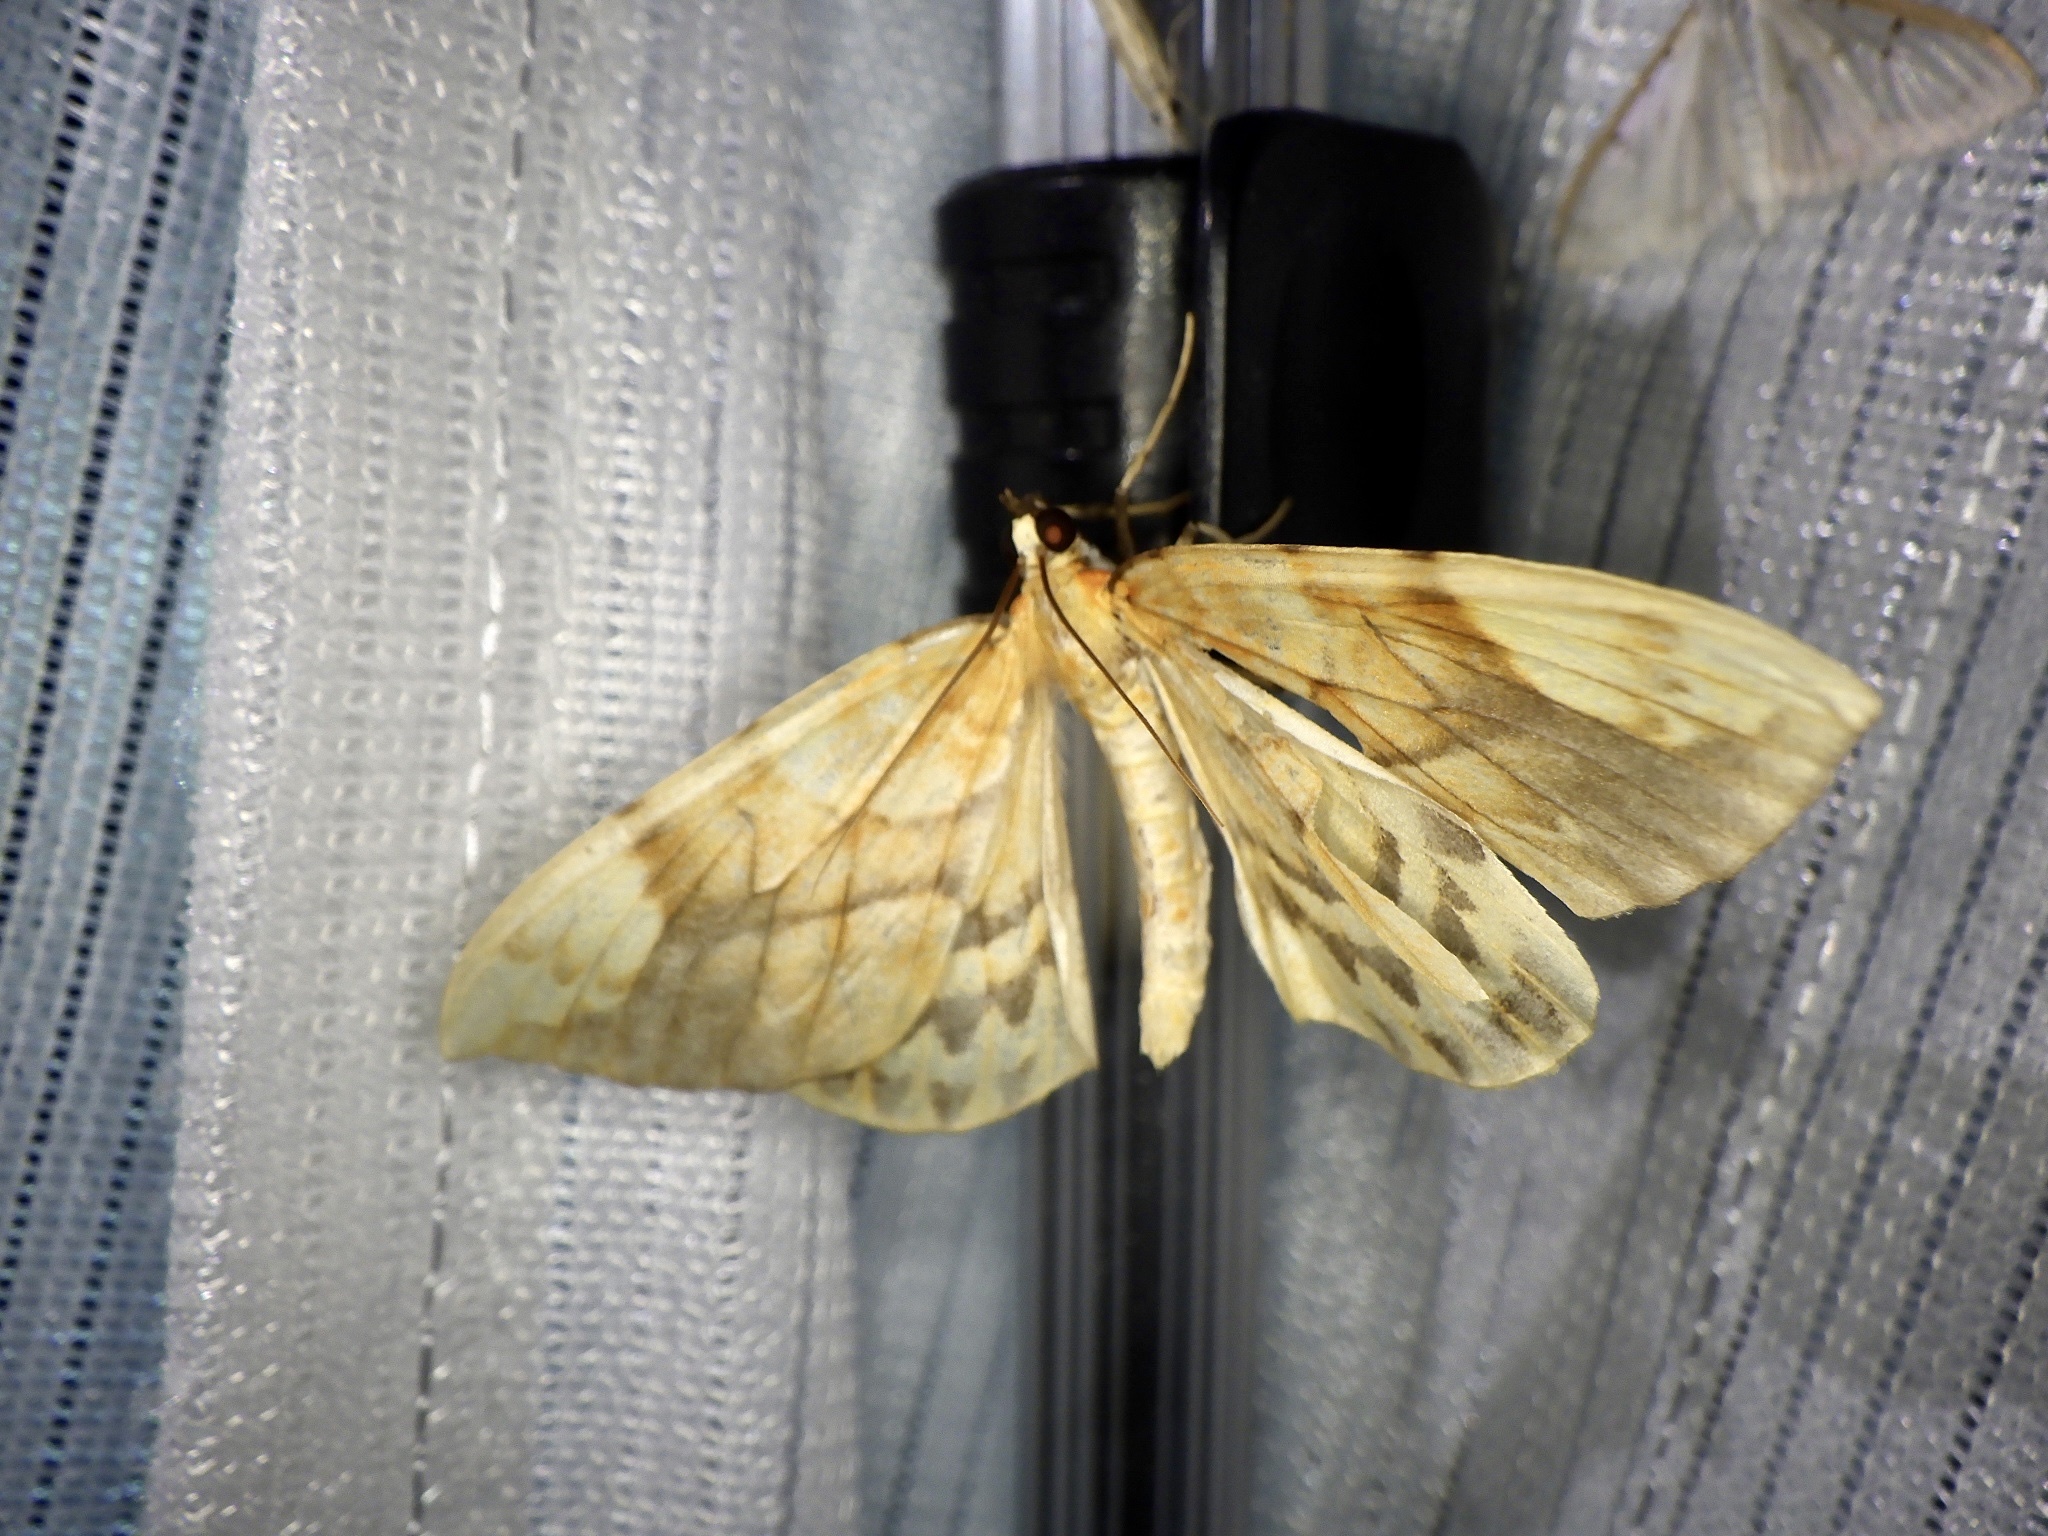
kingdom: Animalia
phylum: Arthropoda
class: Insecta
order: Lepidoptera
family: Geometridae
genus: Gandaritis
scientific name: Gandaritis fixseni
